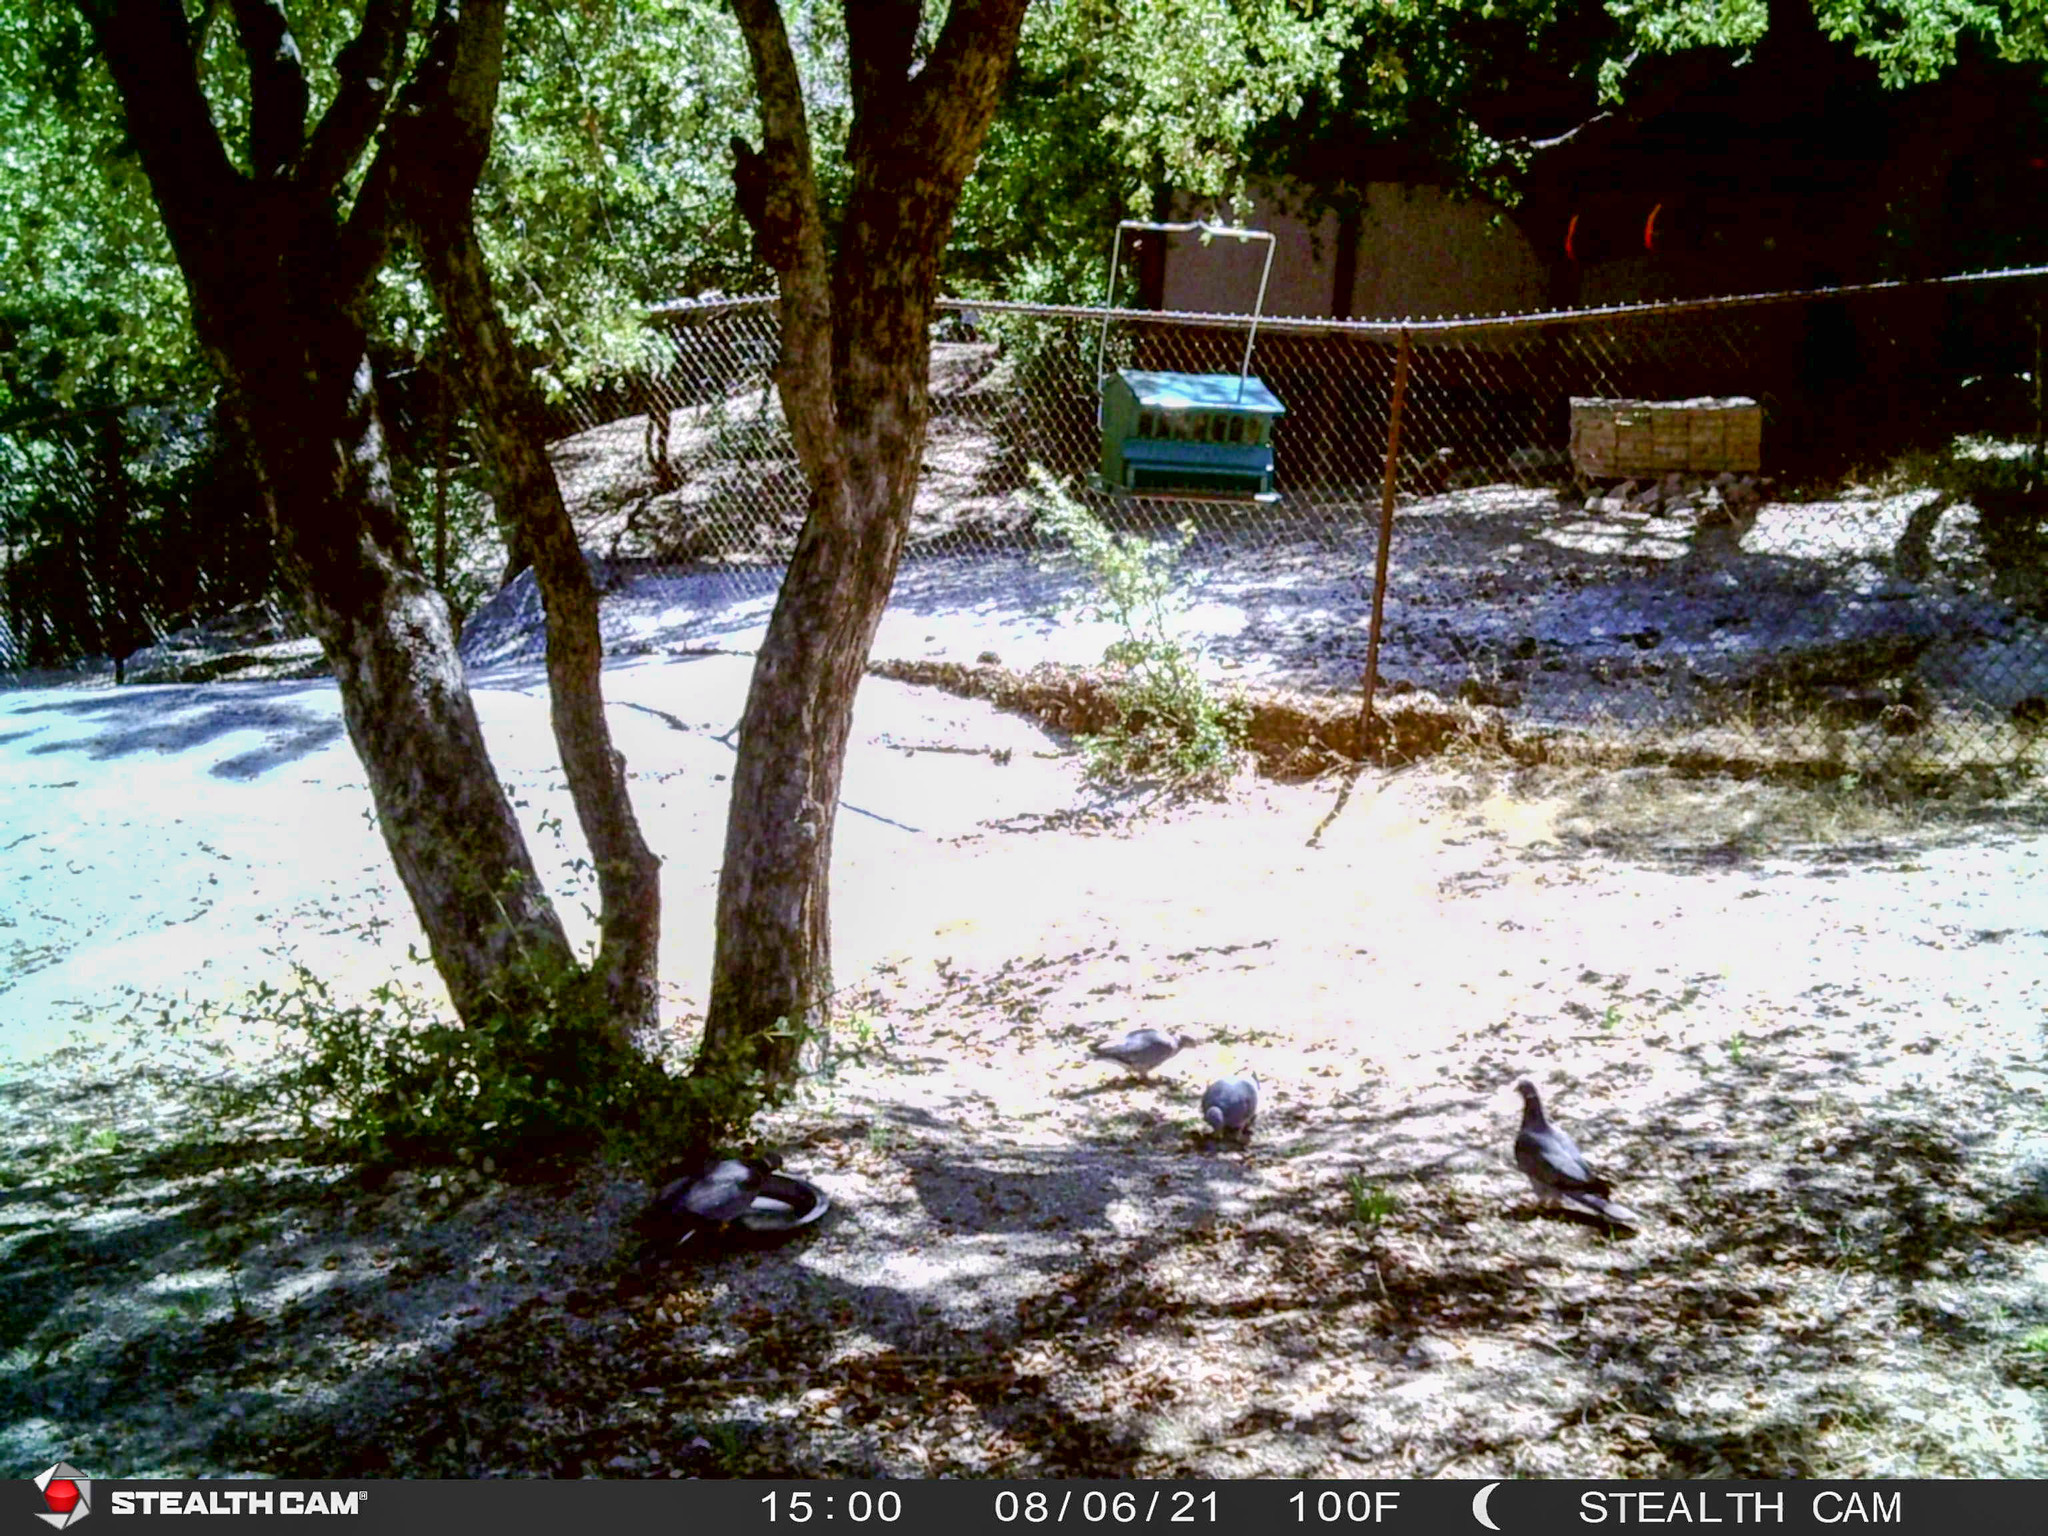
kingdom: Animalia
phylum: Chordata
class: Aves
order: Columbiformes
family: Columbidae
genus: Patagioenas
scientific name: Patagioenas fasciata
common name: Band-tailed pigeon
